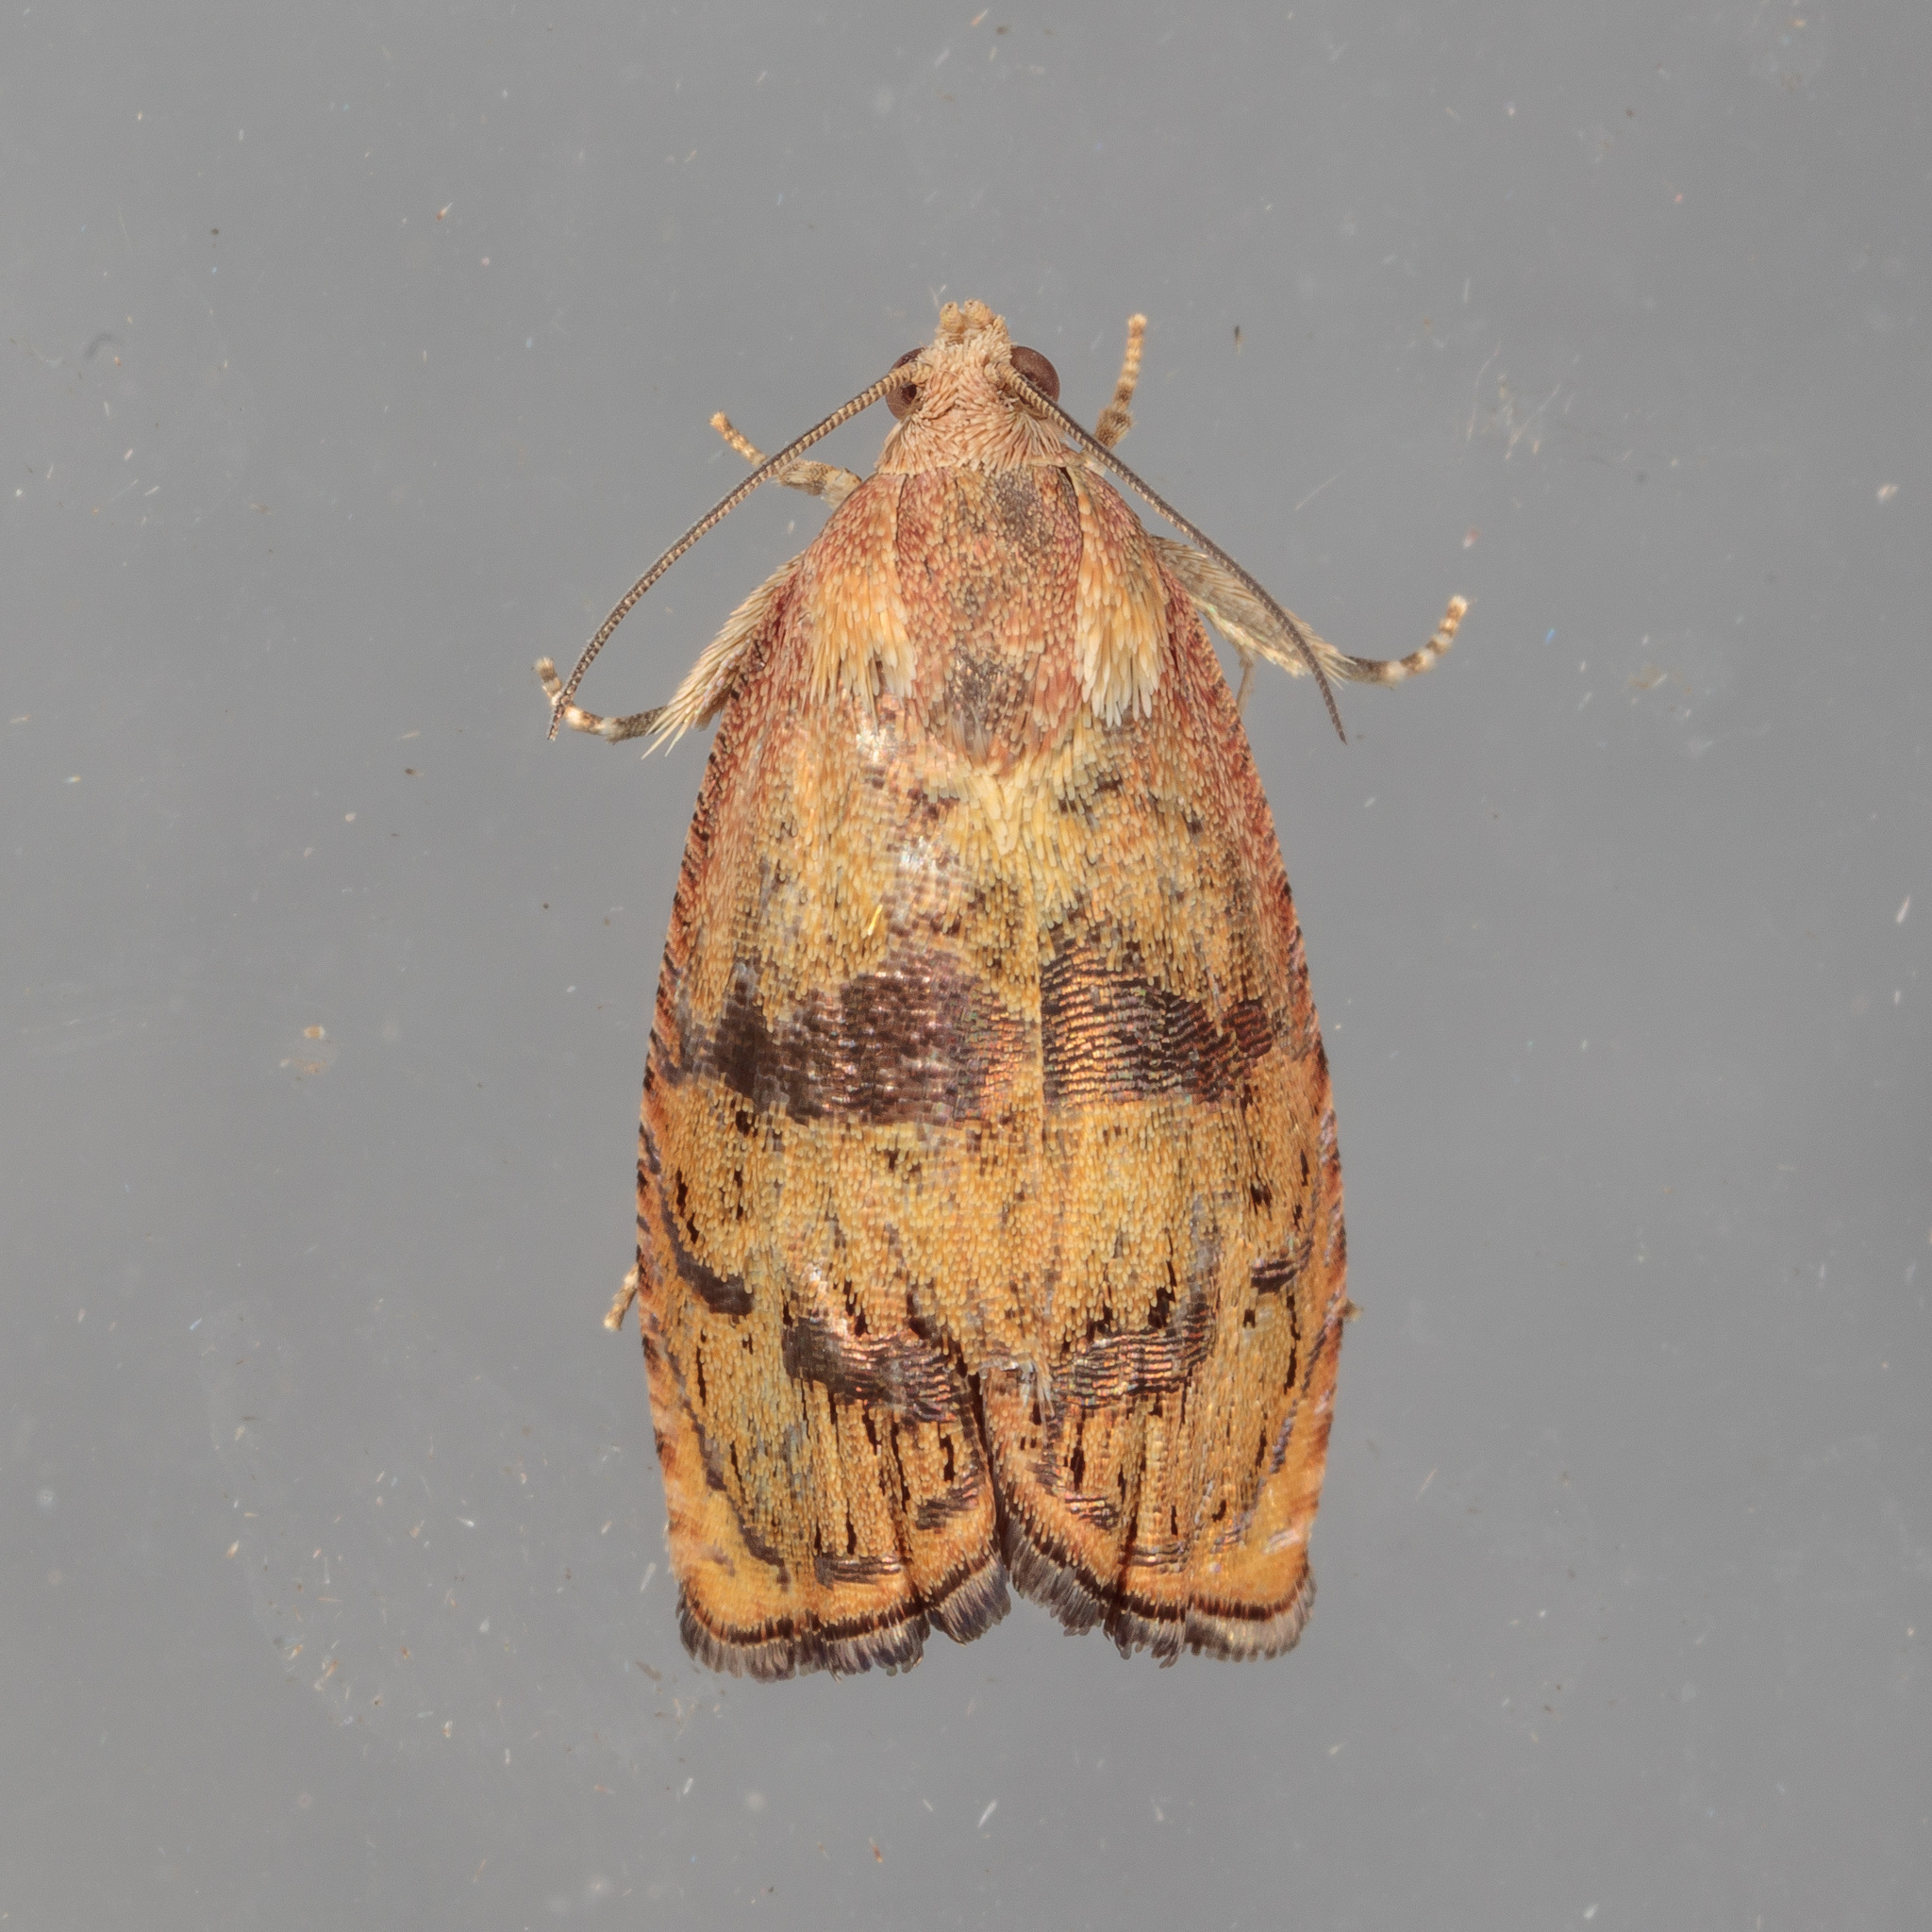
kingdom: Animalia
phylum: Arthropoda
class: Insecta
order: Lepidoptera
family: Tortricidae
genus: Cydia
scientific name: Cydia latiferreana
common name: Filbertworm moth
